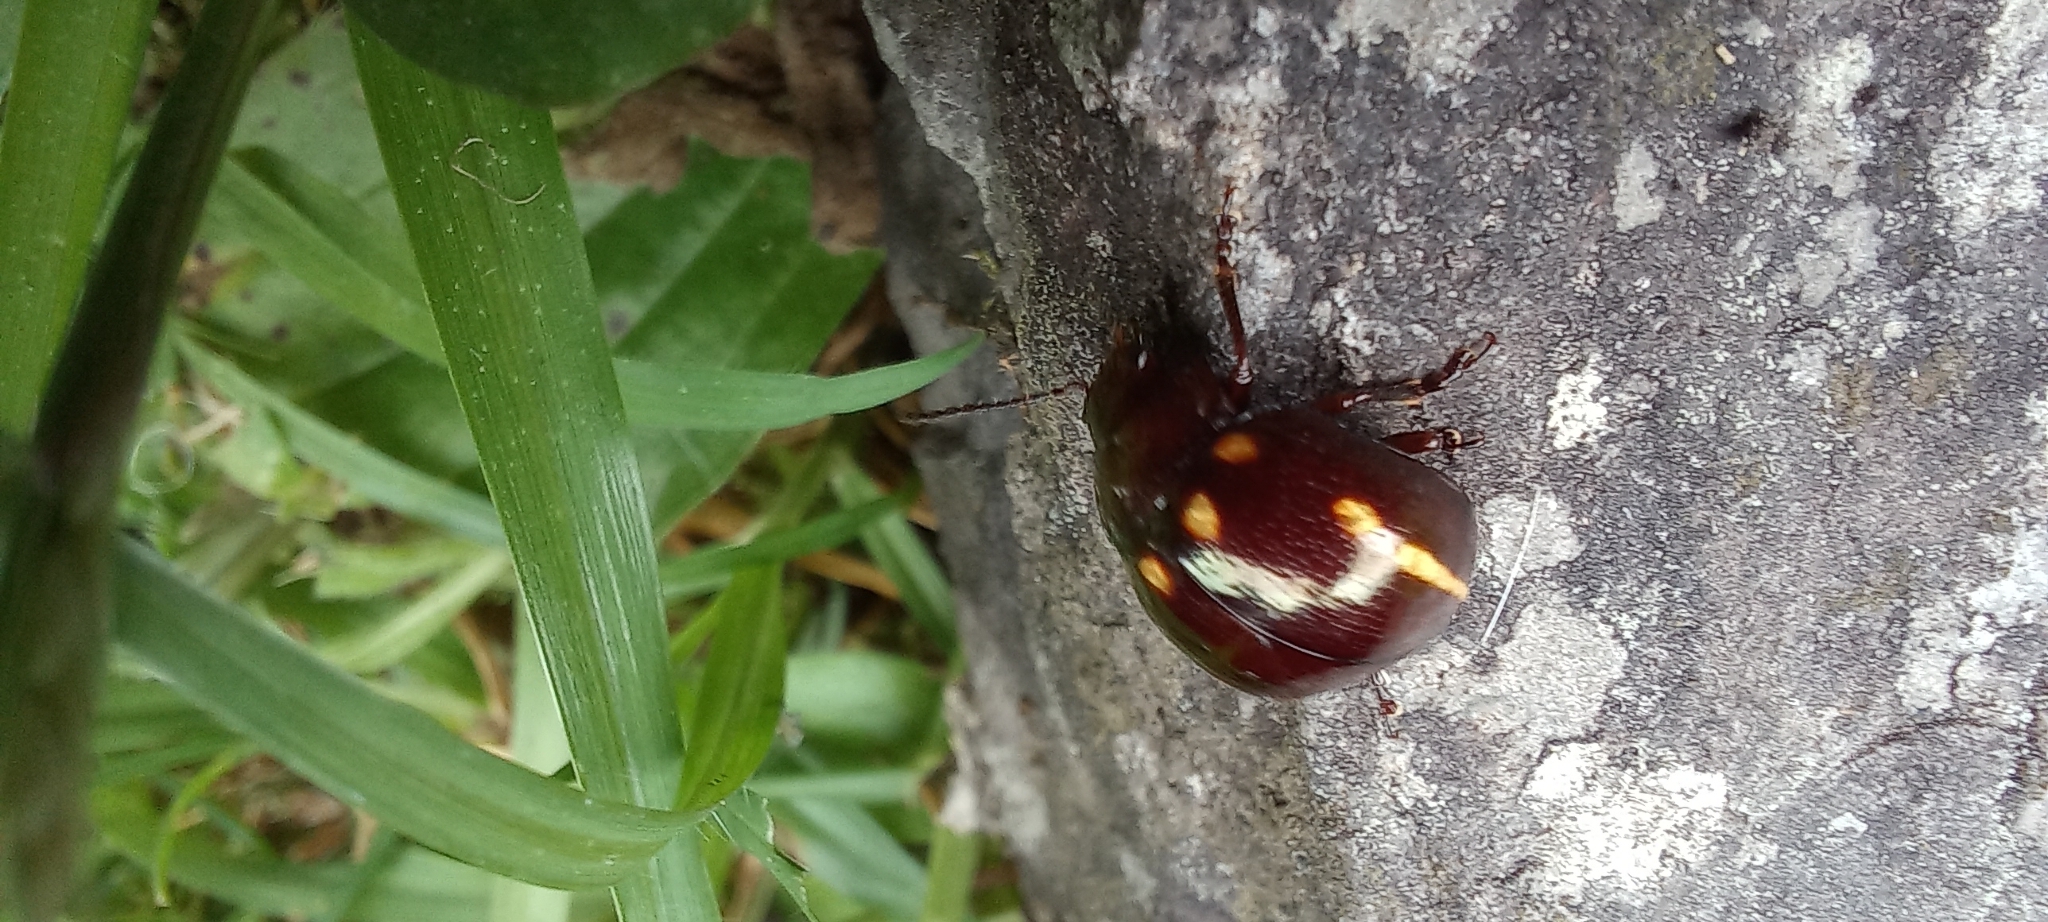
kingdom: Animalia
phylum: Arthropoda
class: Insecta
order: Coleoptera
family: Chrysomelidae
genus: Platyphora
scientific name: Platyphora
